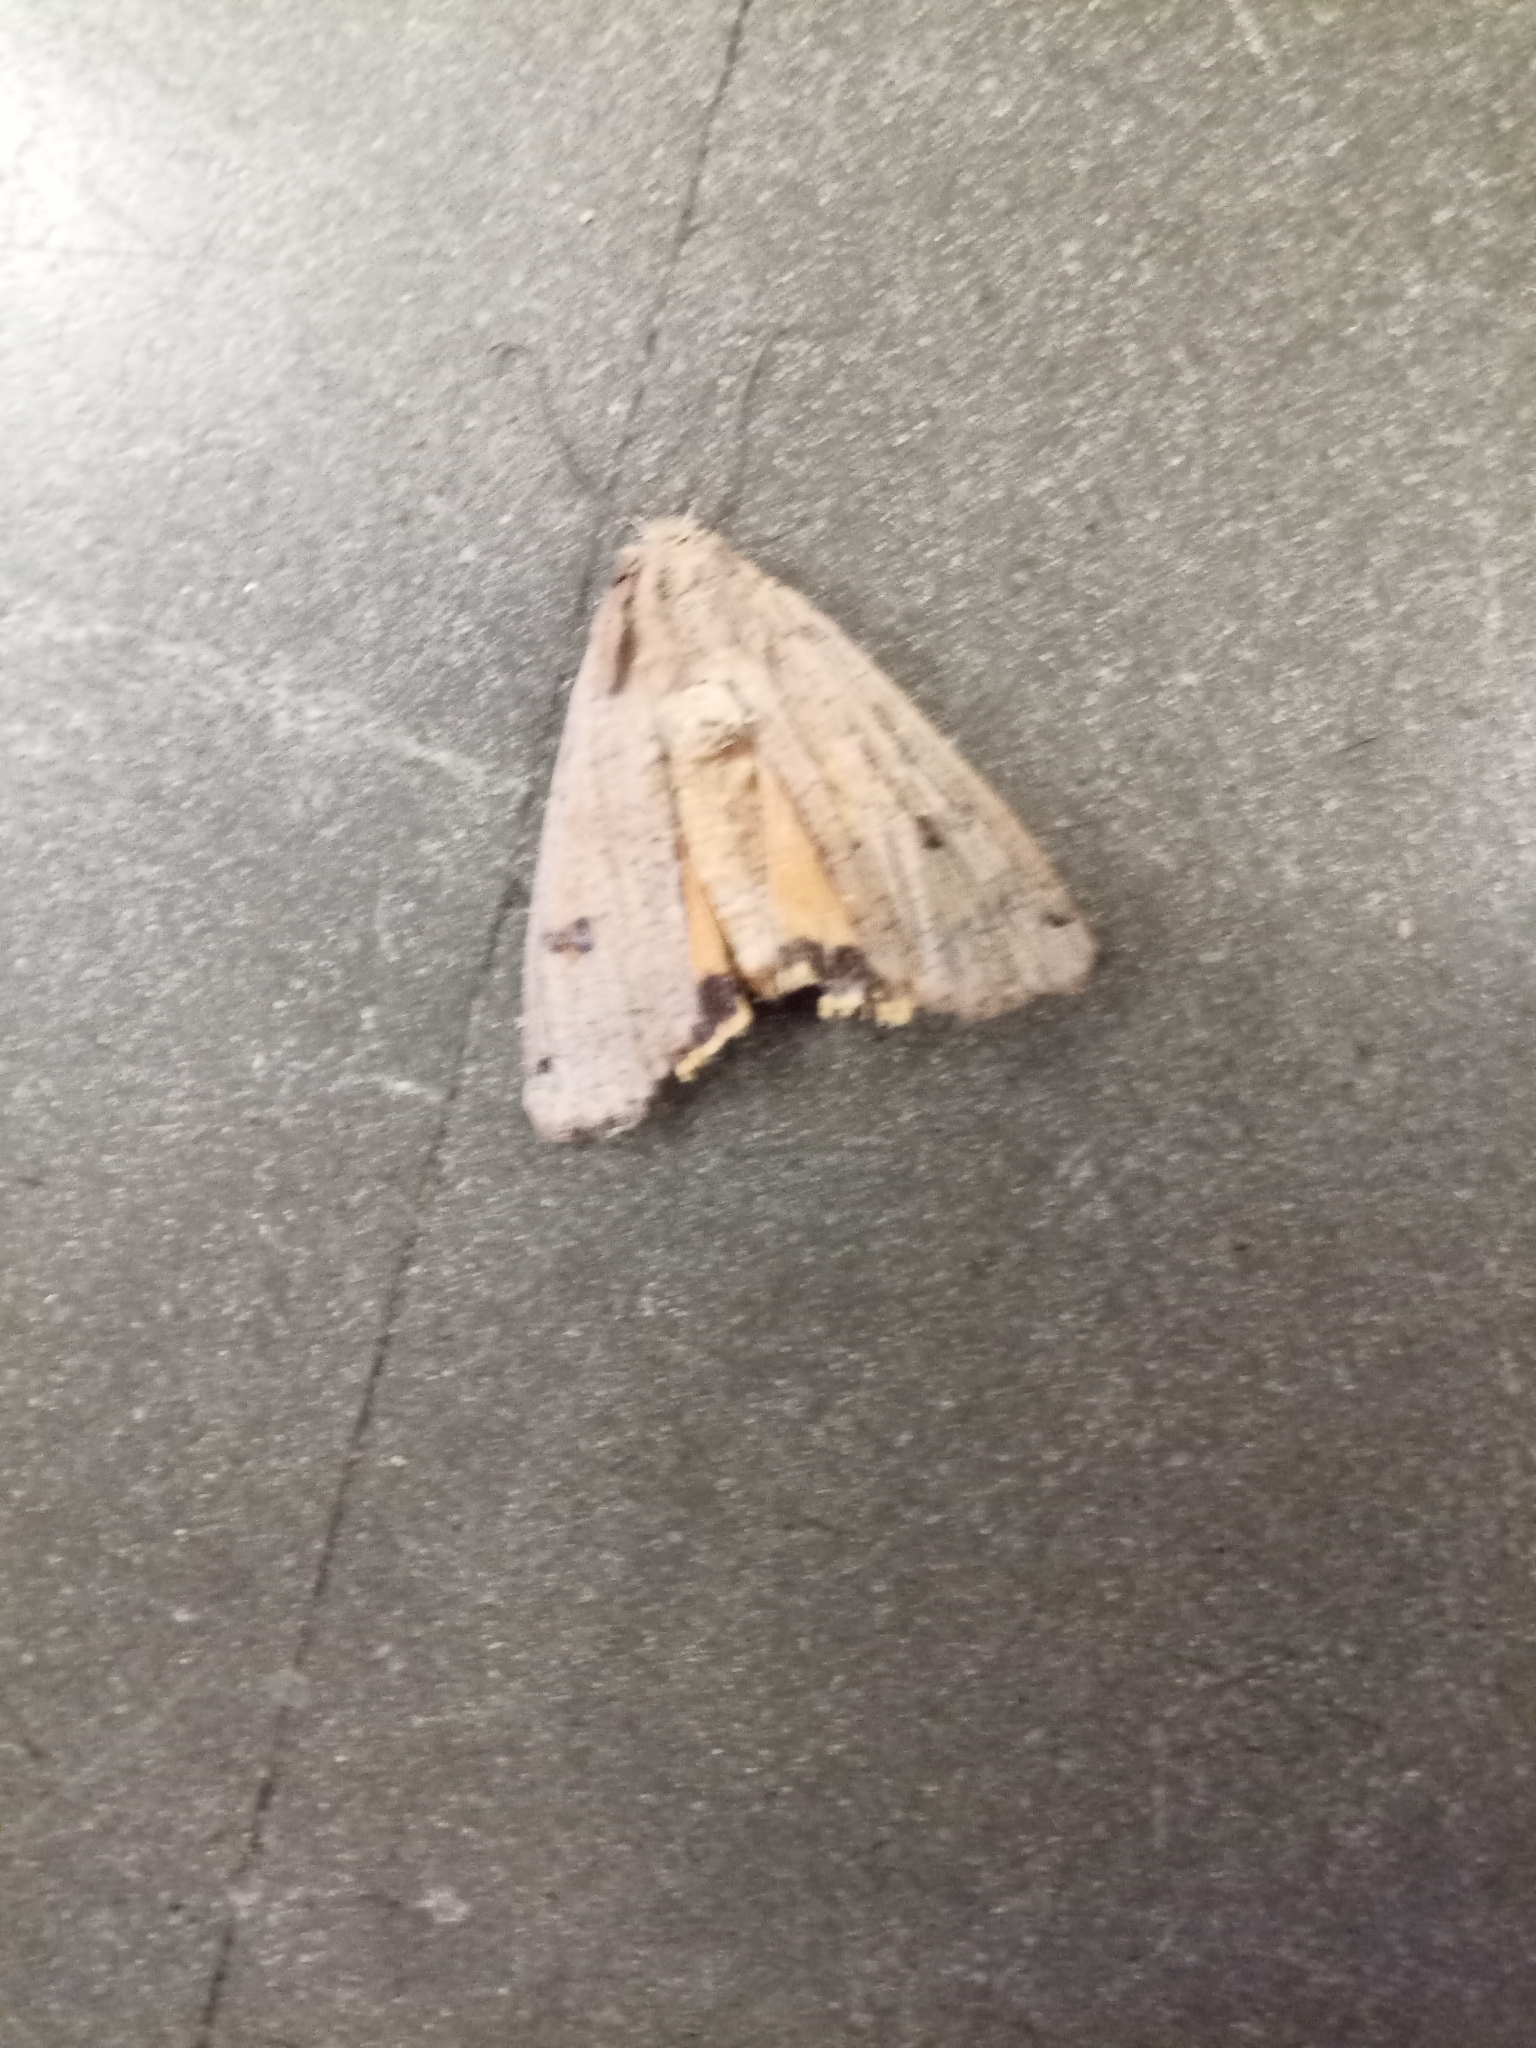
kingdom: Animalia
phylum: Arthropoda
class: Insecta
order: Lepidoptera
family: Noctuidae
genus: Noctua
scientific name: Noctua pronuba
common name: Large yellow underwing
